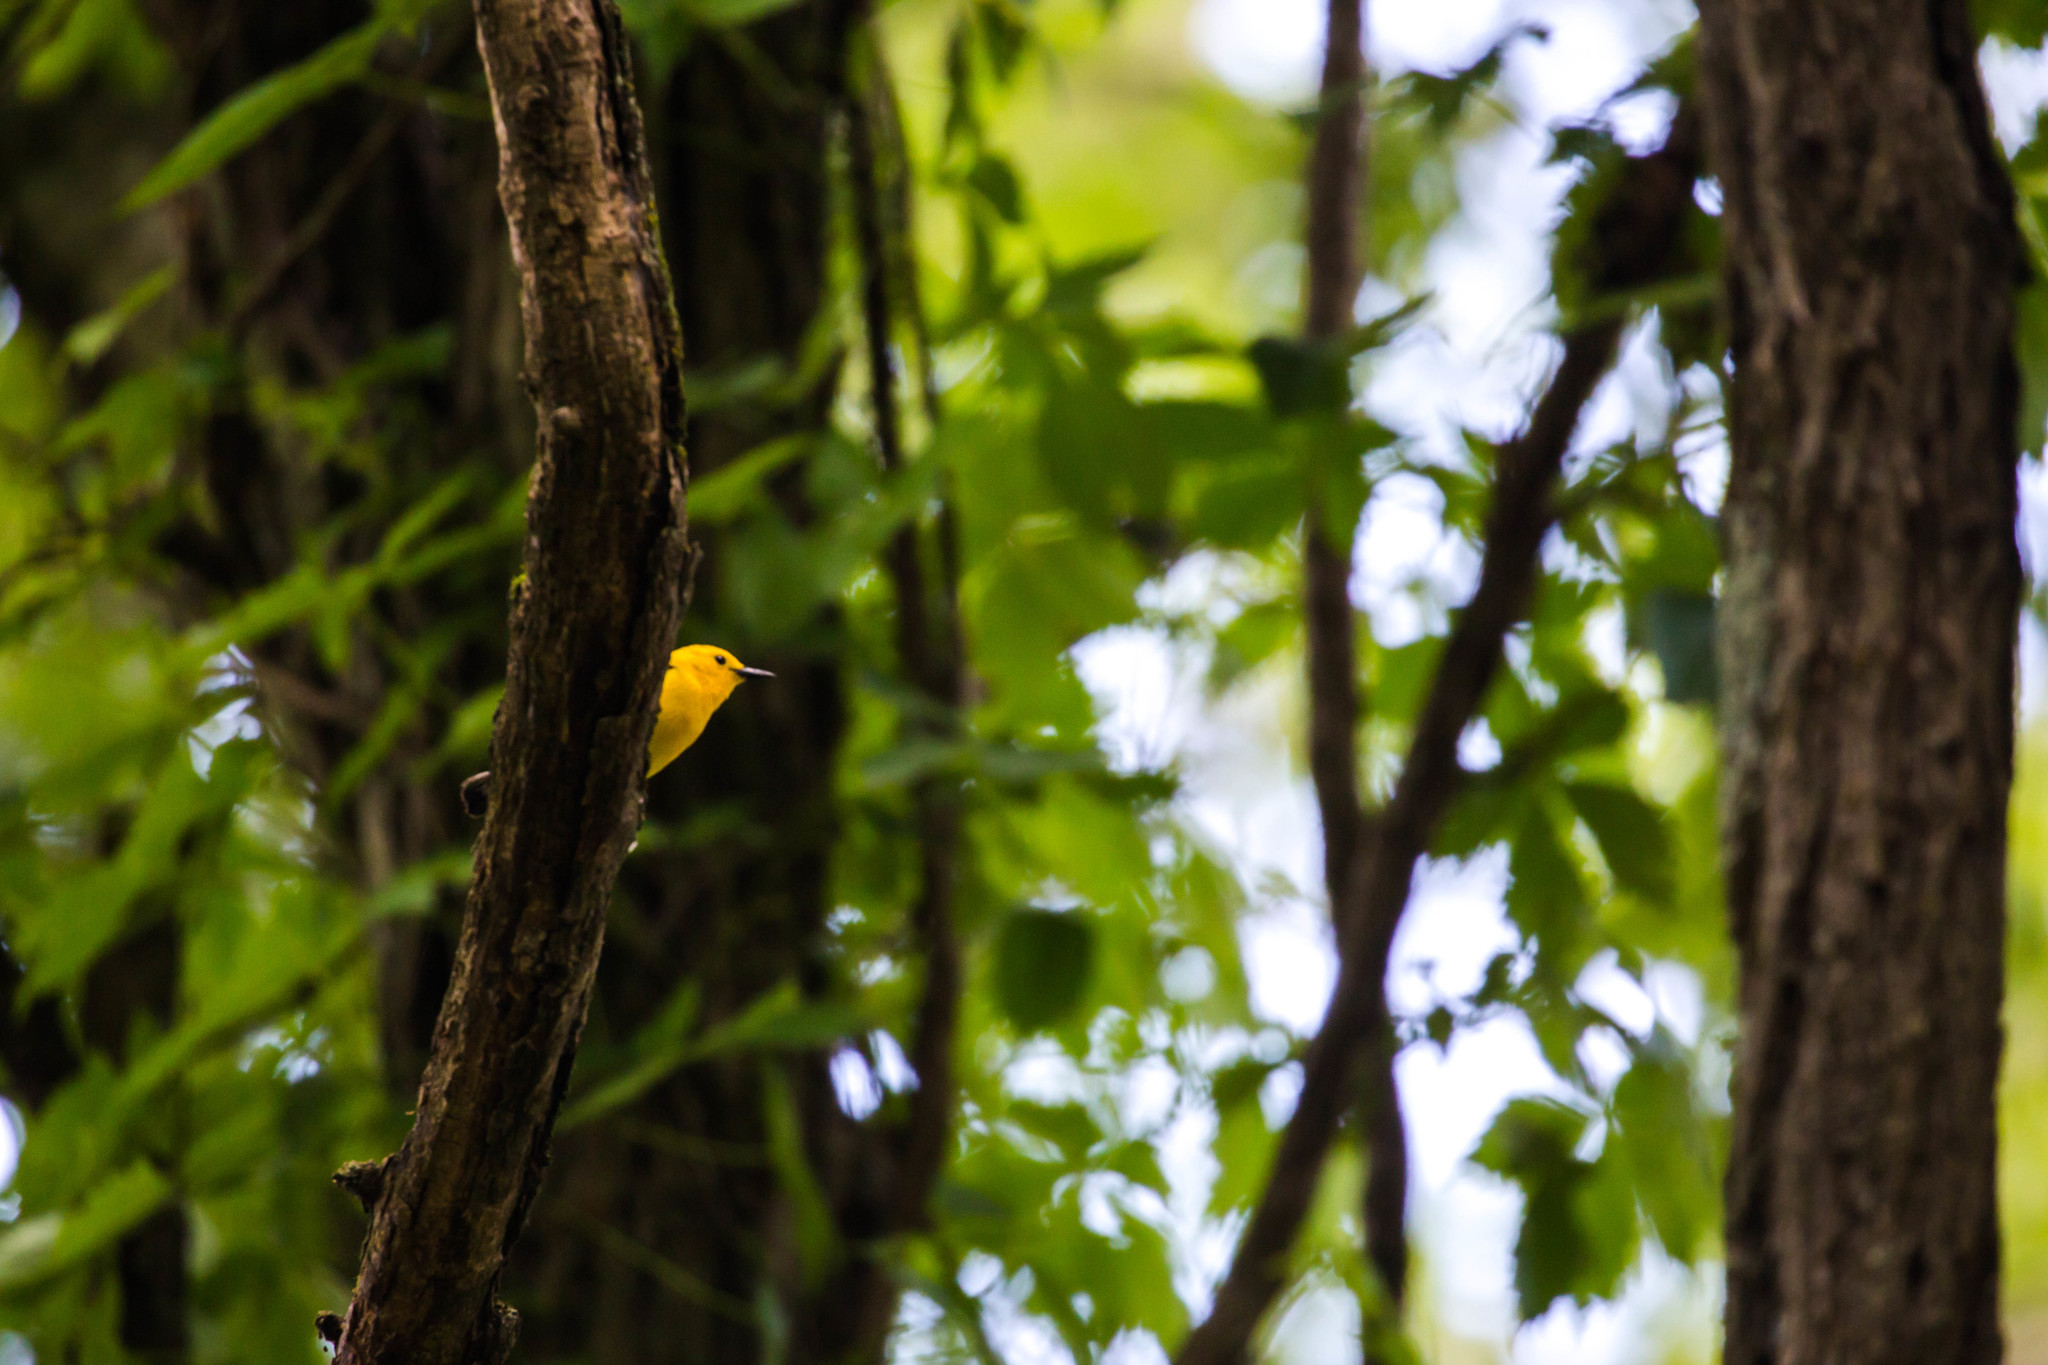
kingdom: Animalia
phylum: Chordata
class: Aves
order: Passeriformes
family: Parulidae
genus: Protonotaria
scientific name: Protonotaria citrea
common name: Prothonotary warbler
